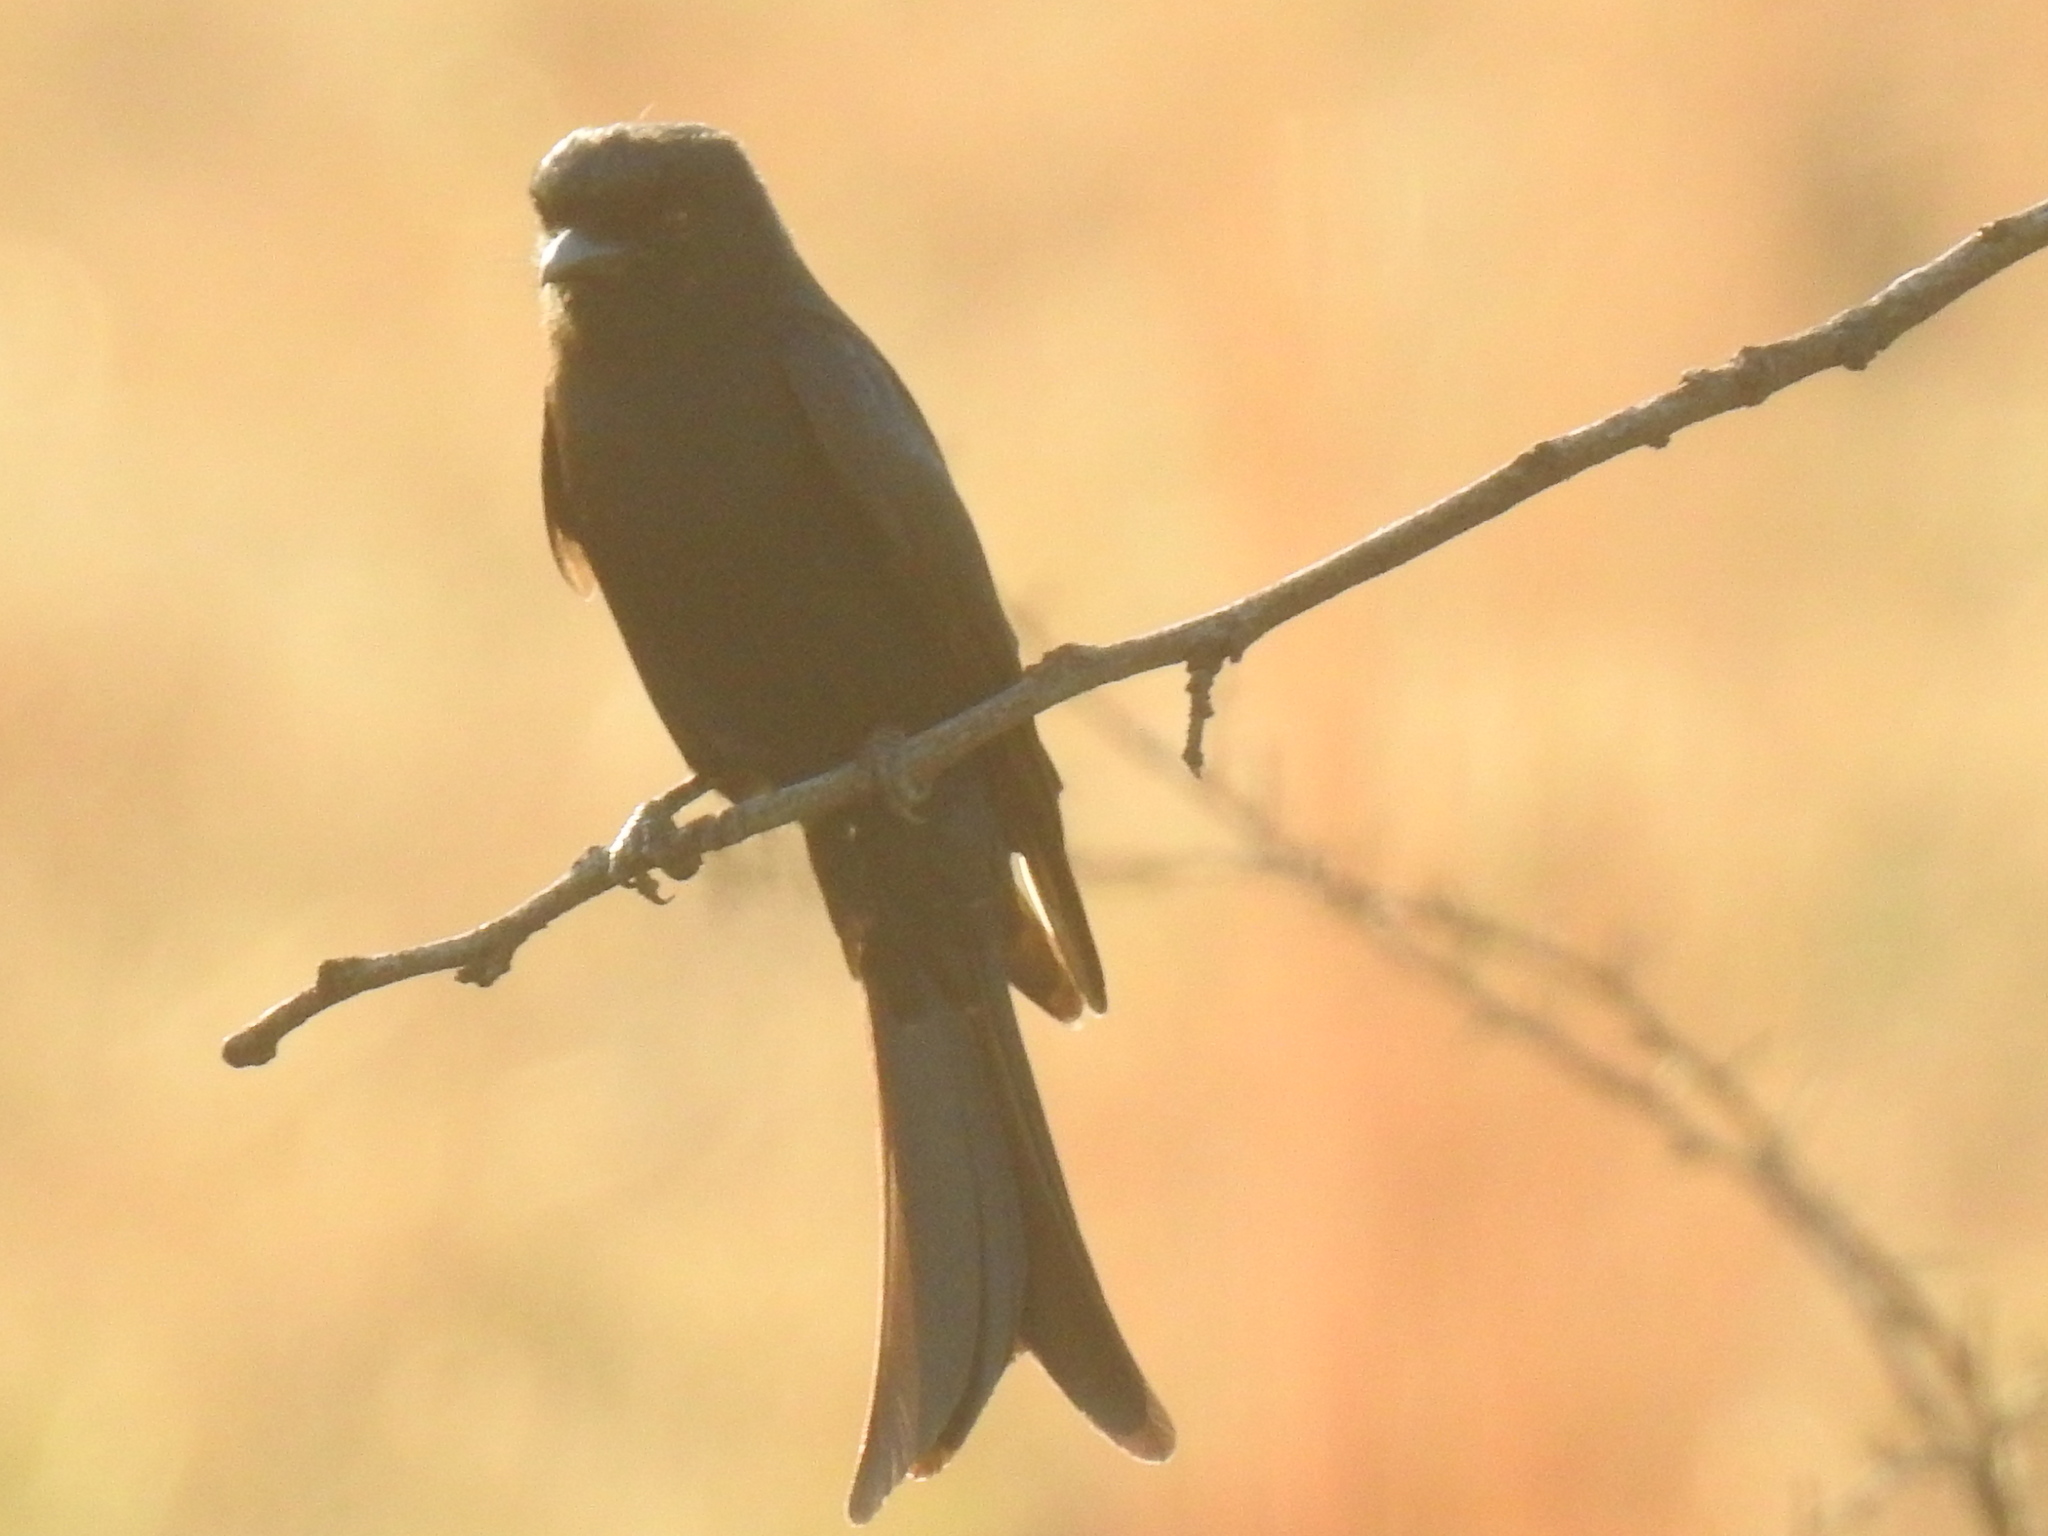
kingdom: Animalia
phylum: Chordata
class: Aves
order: Passeriformes
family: Dicruridae
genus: Dicrurus
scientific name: Dicrurus adsimilis
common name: Fork-tailed drongo
